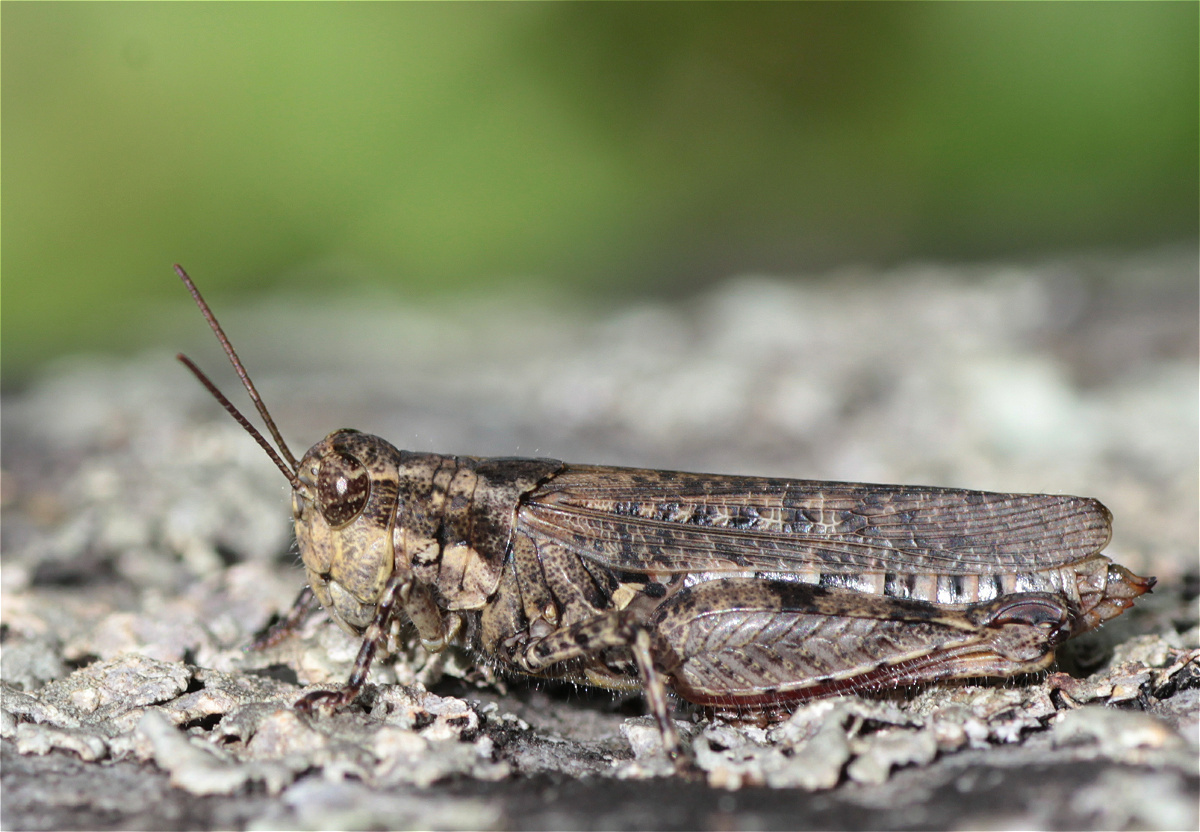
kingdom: Animalia
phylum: Arthropoda
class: Insecta
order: Orthoptera
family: Acrididae
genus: Baeacris
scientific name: Baeacris punctulata
